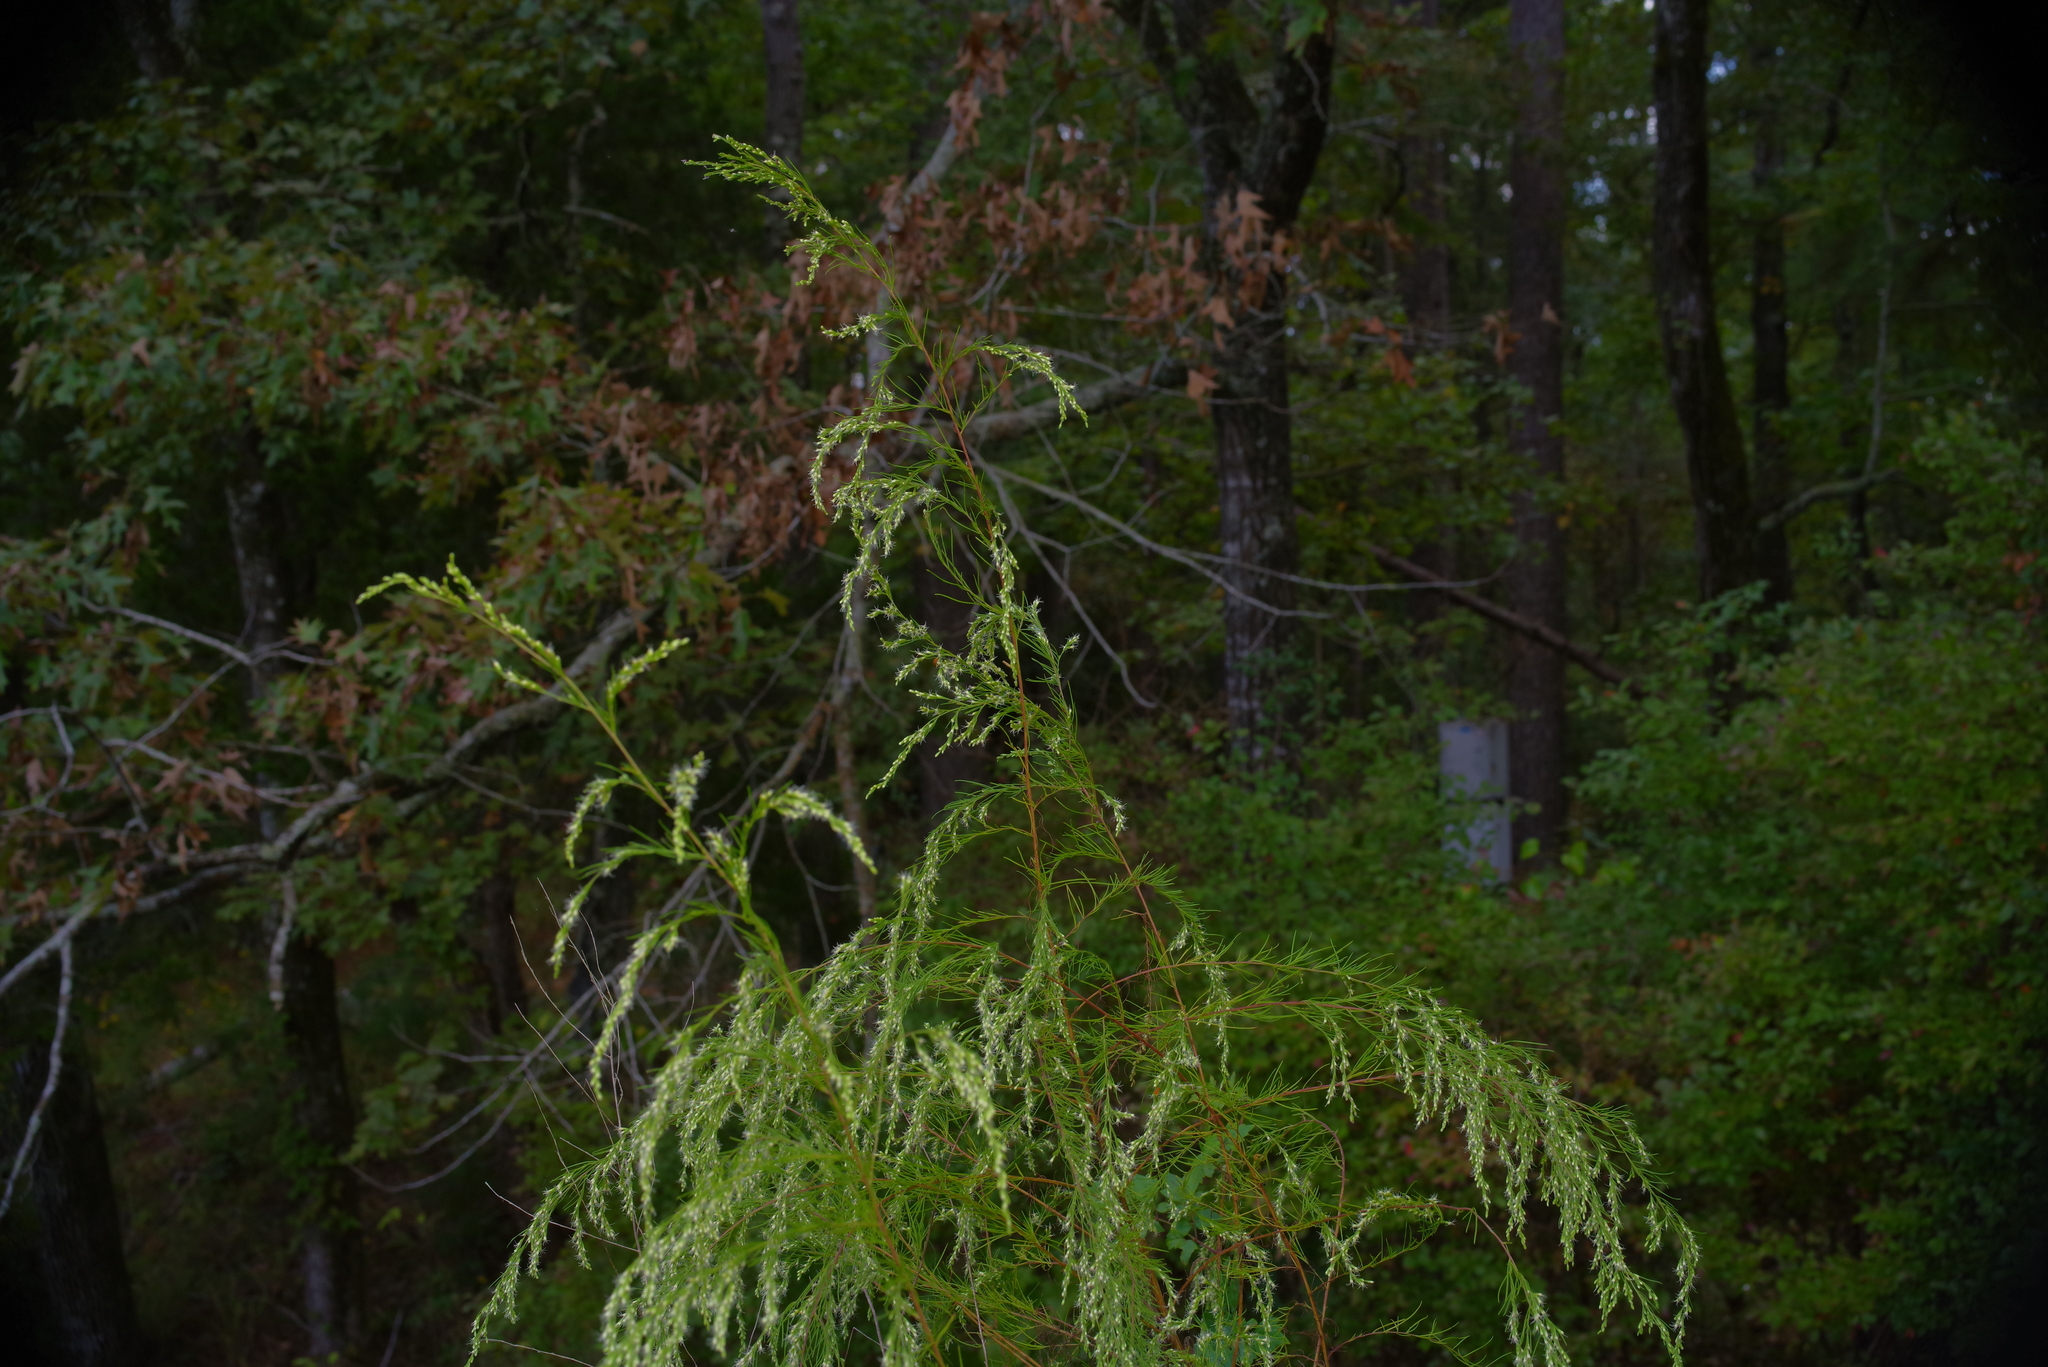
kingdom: Plantae
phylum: Tracheophyta
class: Magnoliopsida
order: Asterales
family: Asteraceae
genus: Eupatorium
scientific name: Eupatorium capillifolium
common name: Dog-fennel
